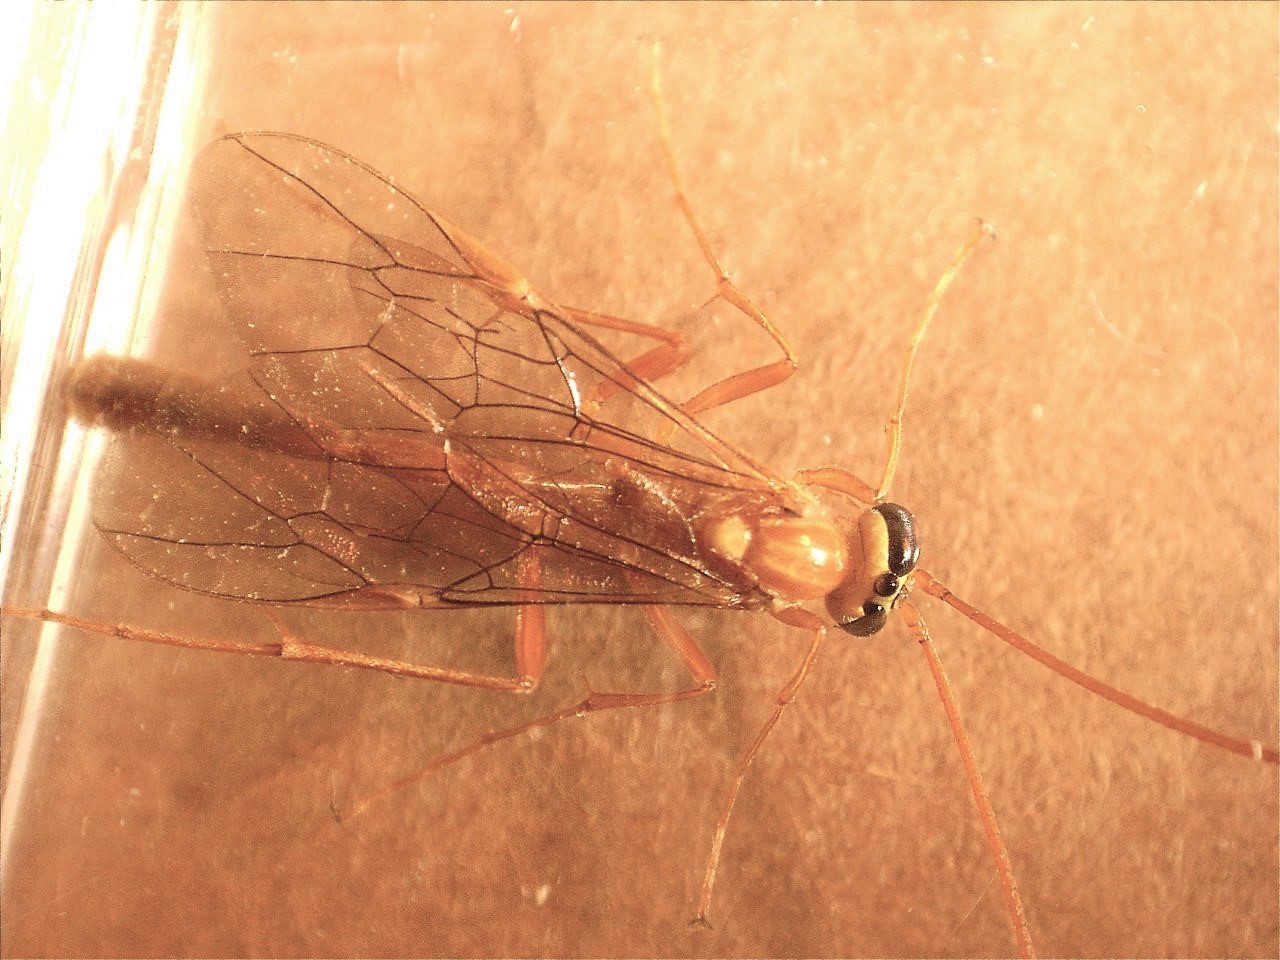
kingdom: Animalia
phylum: Arthropoda
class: Insecta
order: Hymenoptera
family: Ichneumonidae
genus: Ophion
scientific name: Ophion
